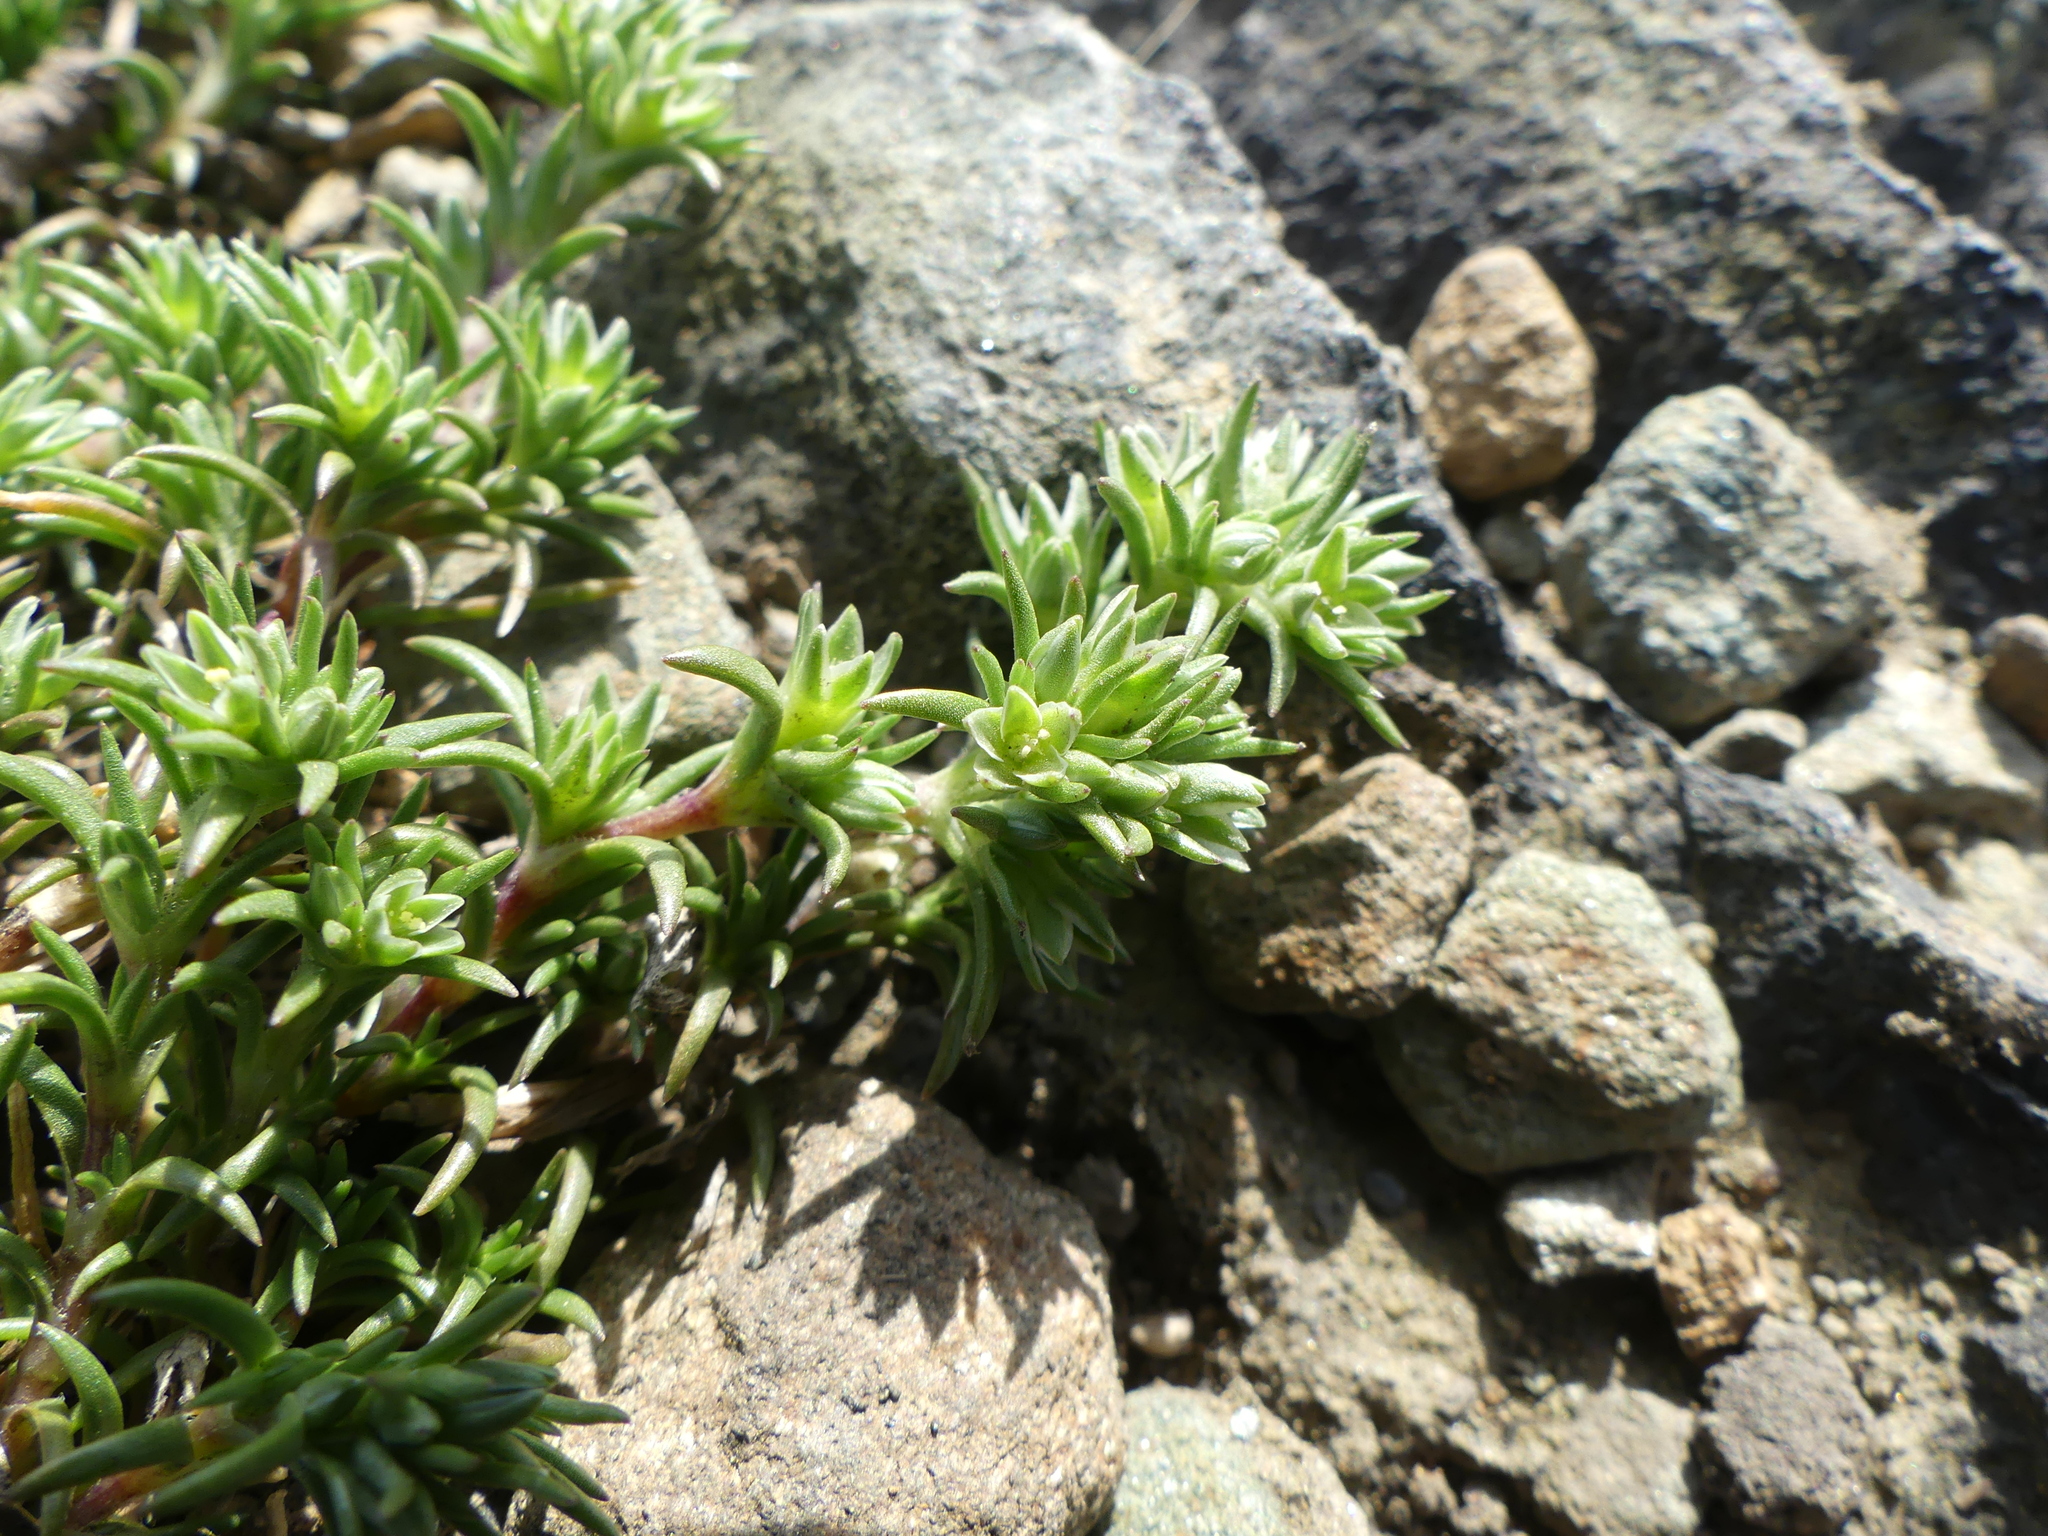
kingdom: Plantae
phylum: Tracheophyta
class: Magnoliopsida
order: Caryophyllales
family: Caryophyllaceae
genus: Scleranthus
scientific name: Scleranthus annuus
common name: Annual knawel
